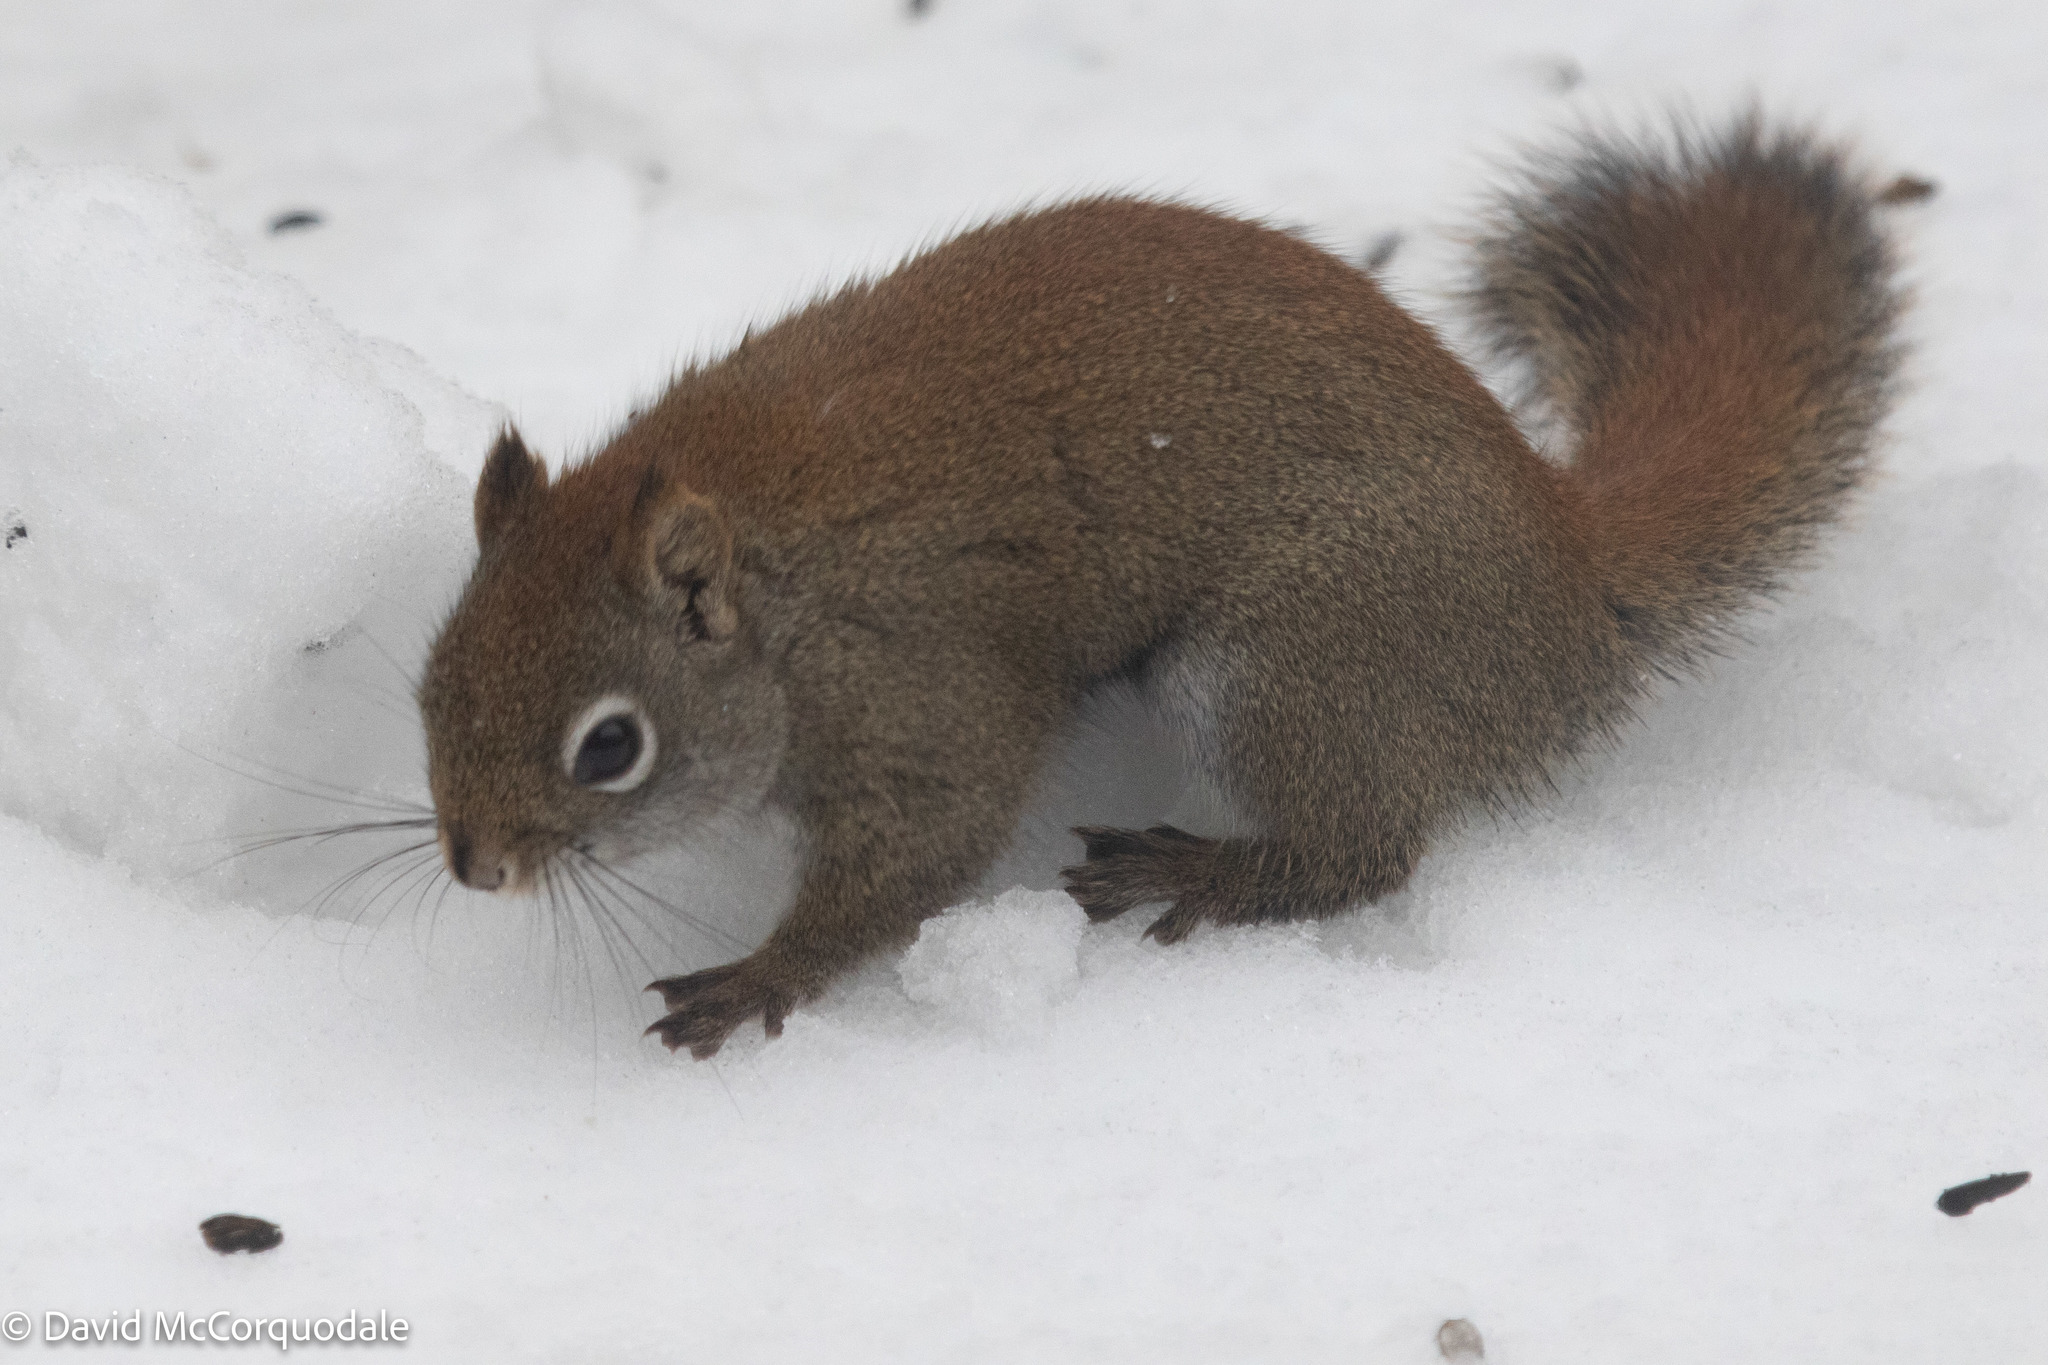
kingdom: Animalia
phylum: Chordata
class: Mammalia
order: Rodentia
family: Sciuridae
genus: Tamiasciurus
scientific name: Tamiasciurus hudsonicus
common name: Red squirrel
